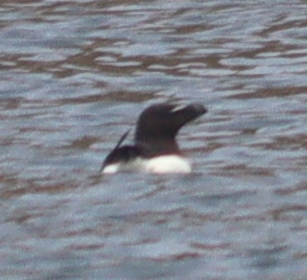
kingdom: Animalia
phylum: Chordata
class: Aves
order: Charadriiformes
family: Alcidae
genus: Alca
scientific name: Alca torda
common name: Razorbill
